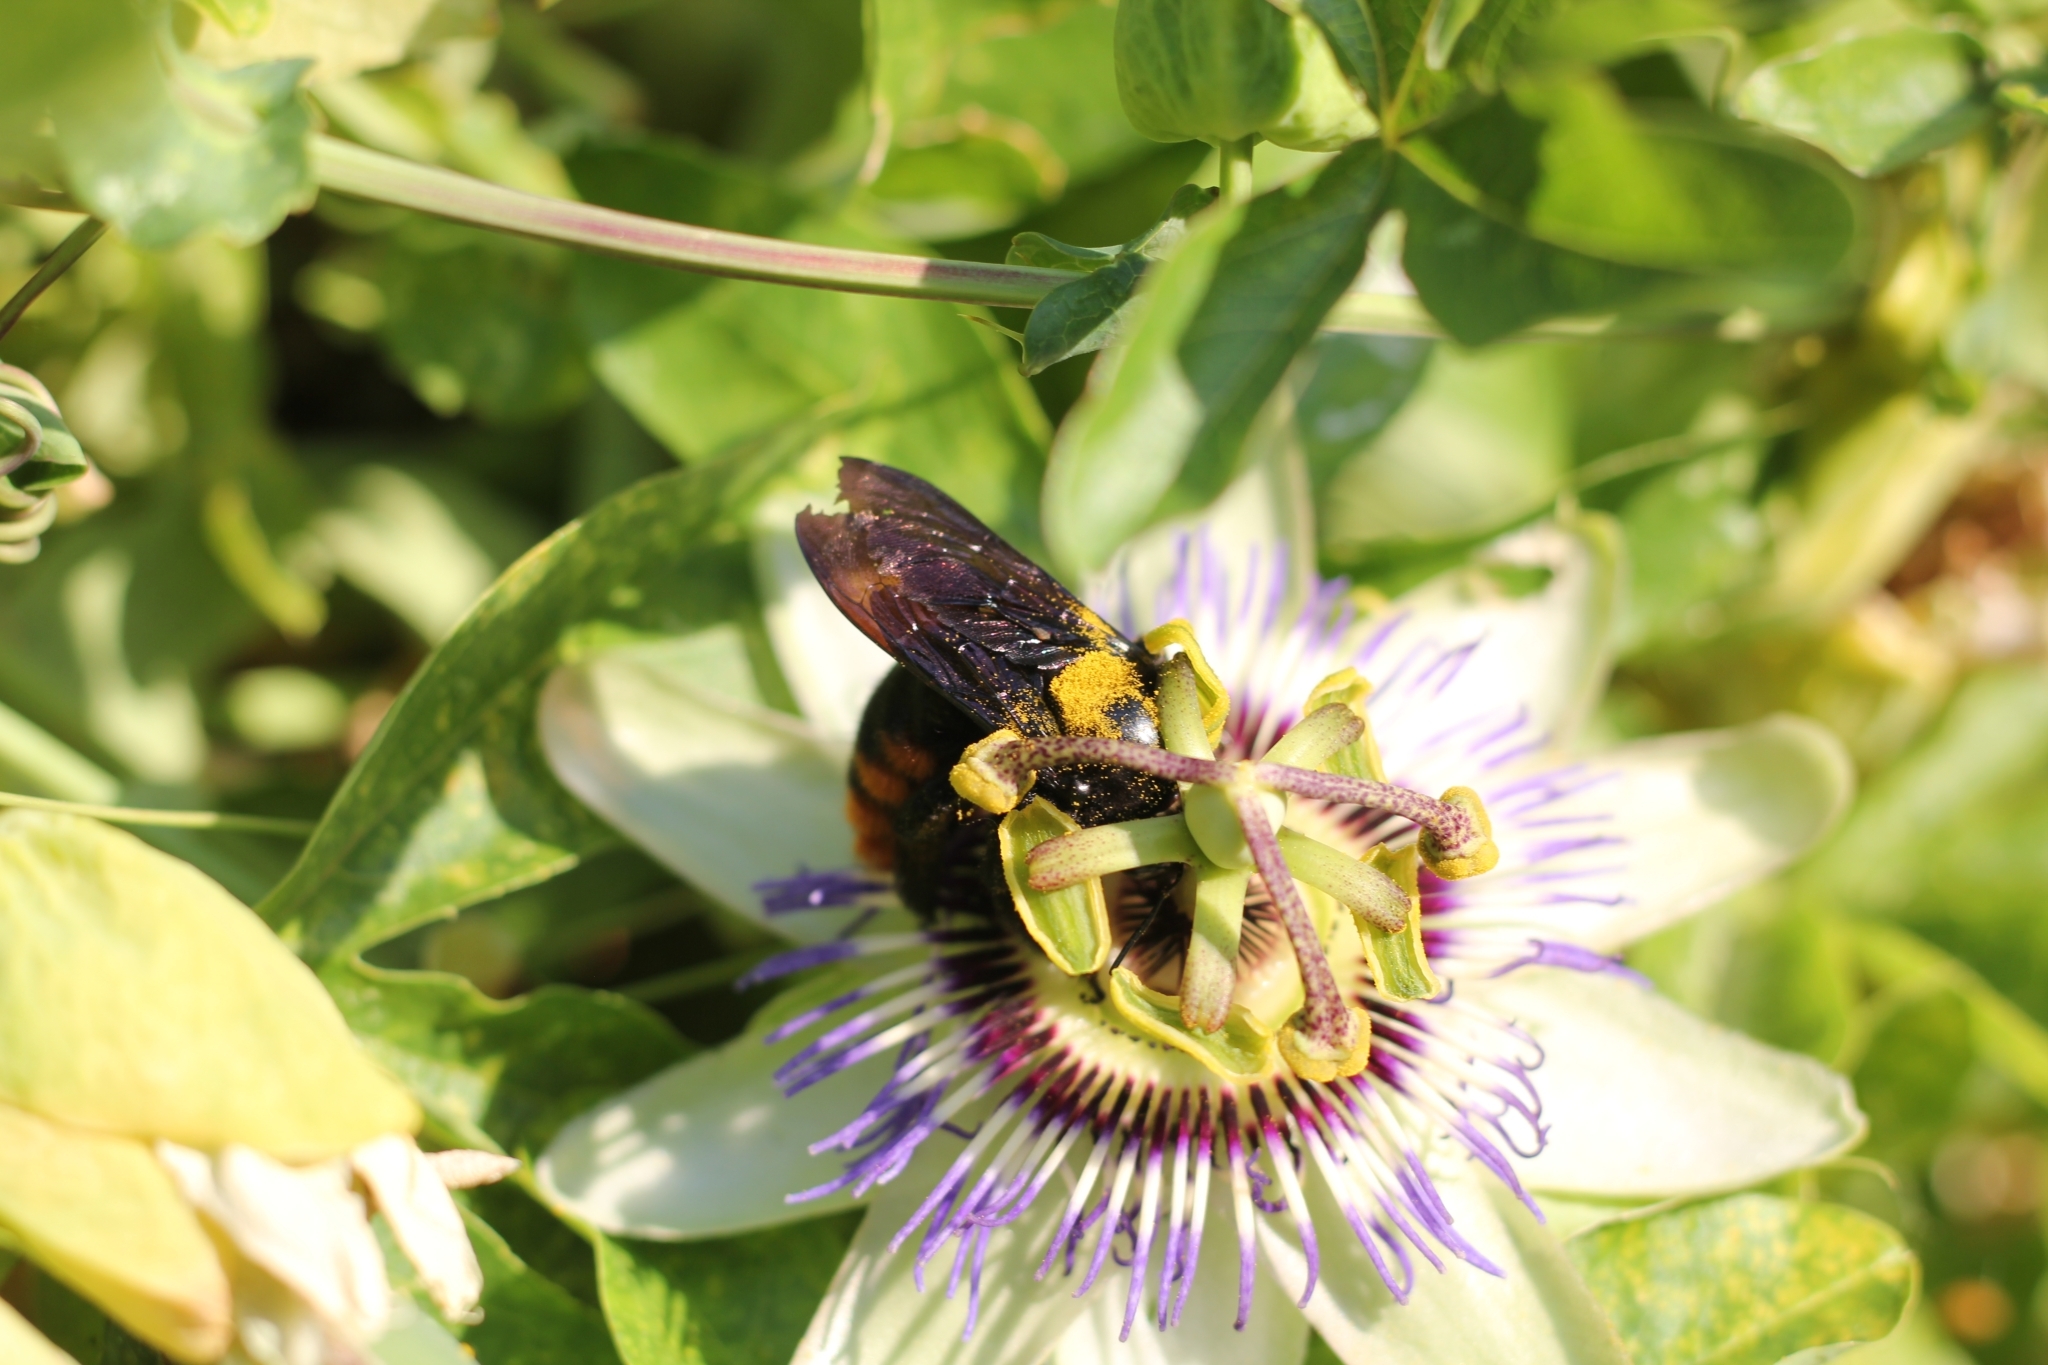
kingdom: Animalia
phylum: Arthropoda
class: Insecta
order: Hymenoptera
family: Apidae
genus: Xylocopa
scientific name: Xylocopa augusti
